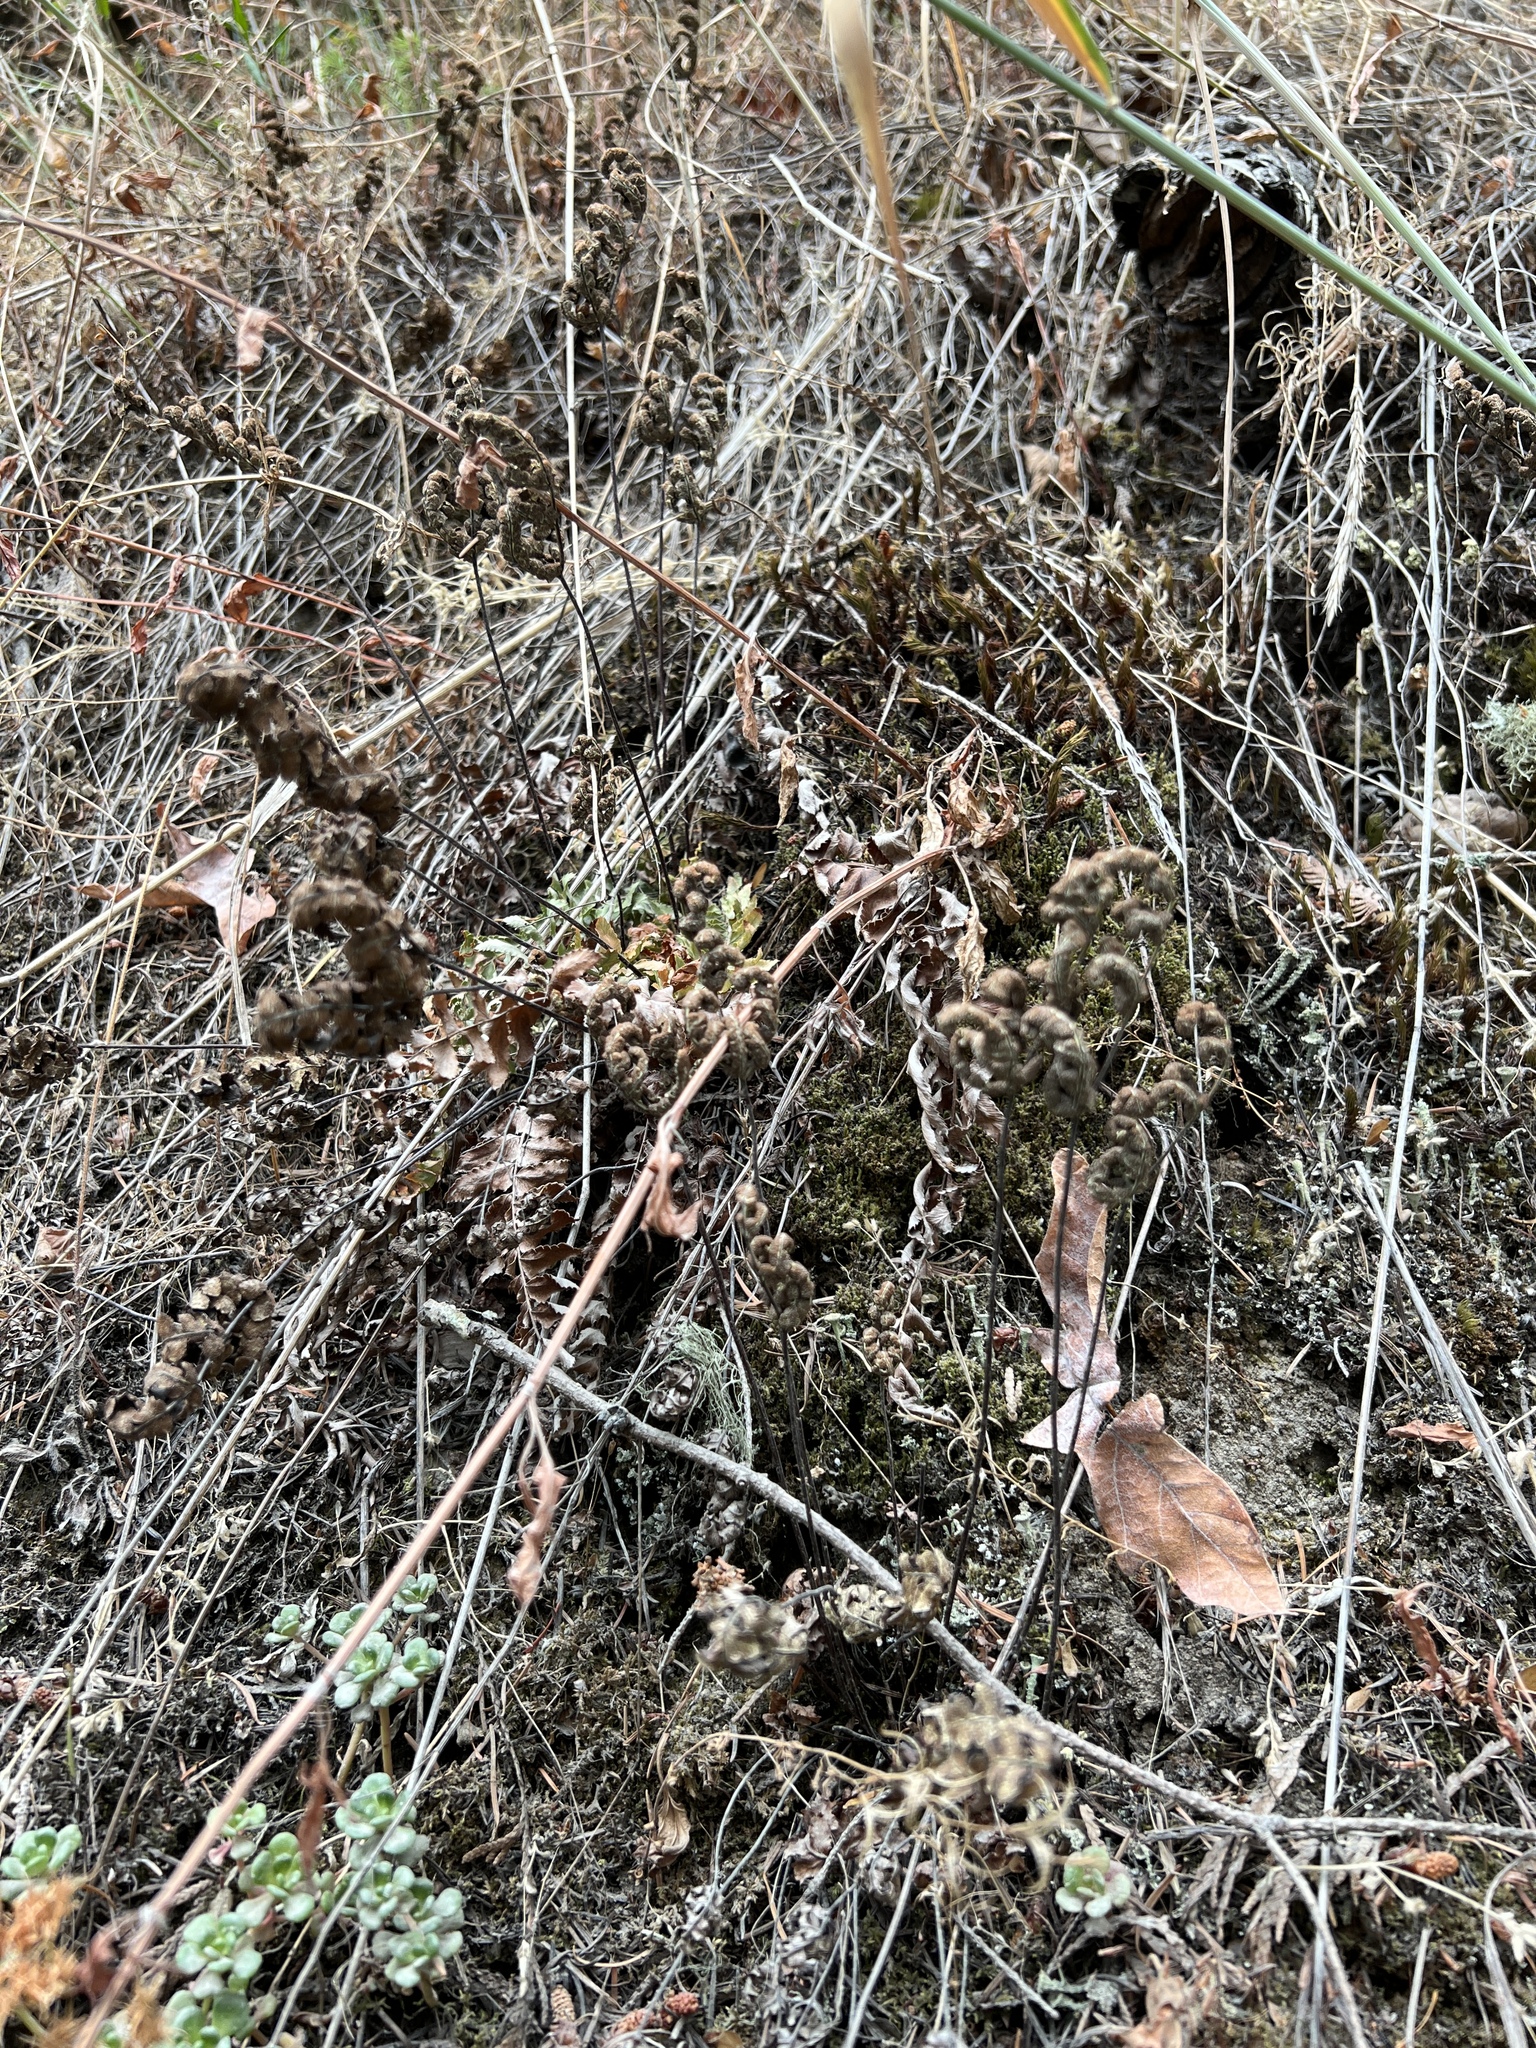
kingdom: Plantae
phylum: Tracheophyta
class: Polypodiopsida
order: Polypodiales
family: Pteridaceae
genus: Pentagramma
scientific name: Pentagramma triangularis
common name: Gold fern
